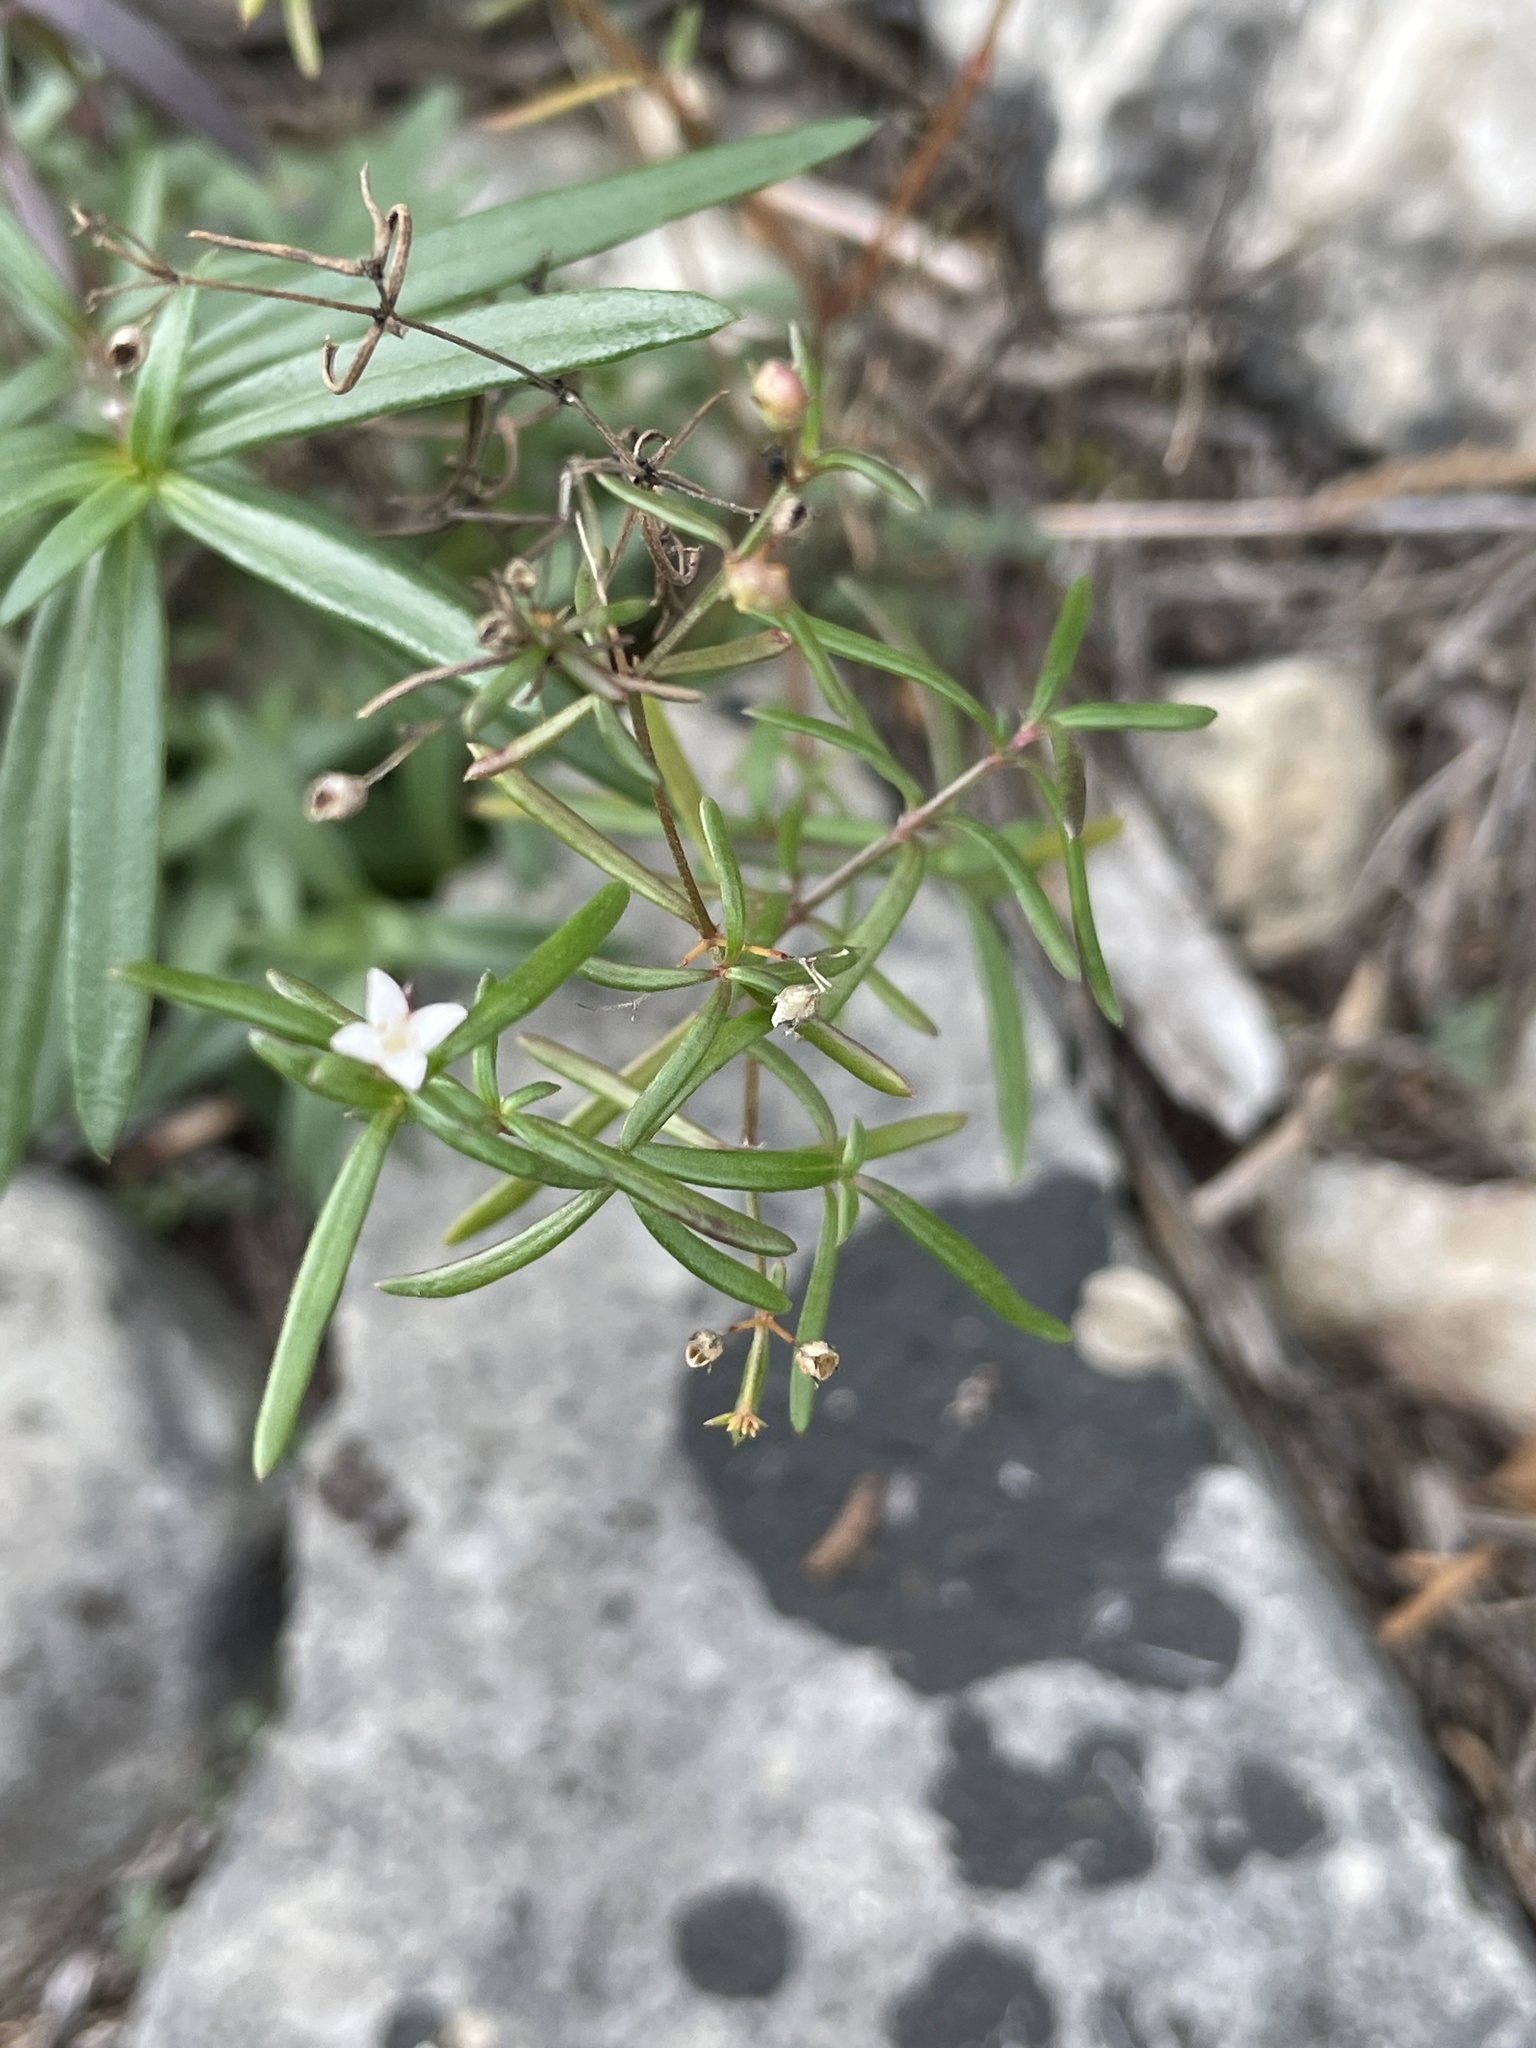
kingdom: Plantae
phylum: Tracheophyta
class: Magnoliopsida
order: Gentianales
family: Rubiaceae
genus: Stenaria
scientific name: Stenaria nigricans
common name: Diamondflowers
